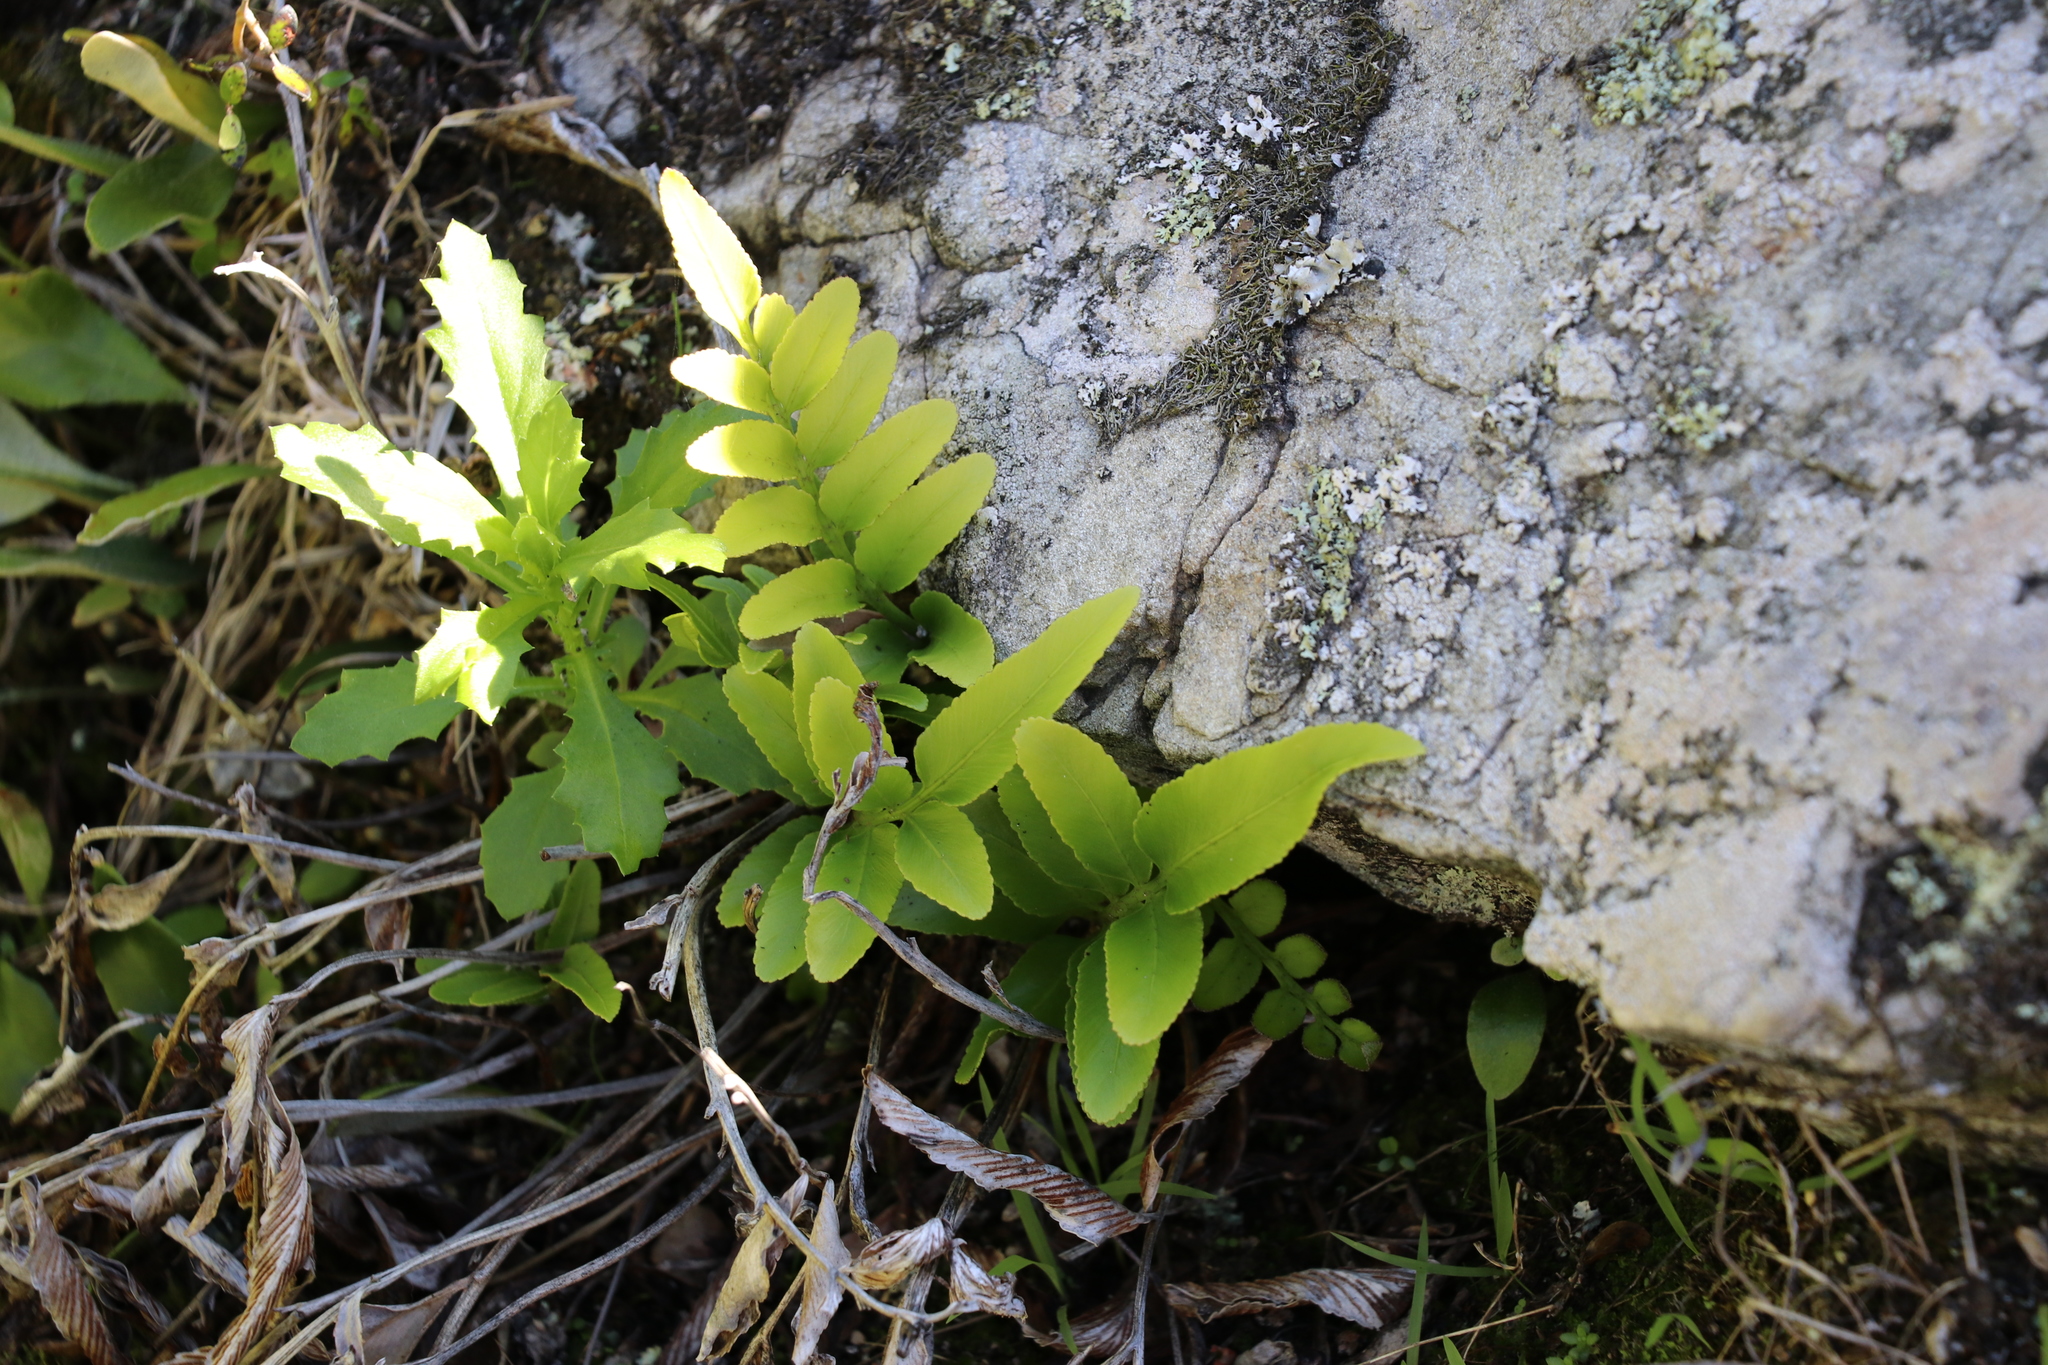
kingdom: Plantae
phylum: Tracheophyta
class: Polypodiopsida
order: Polypodiales
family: Aspleniaceae
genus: Asplenium
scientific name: Asplenium oblongifolium
